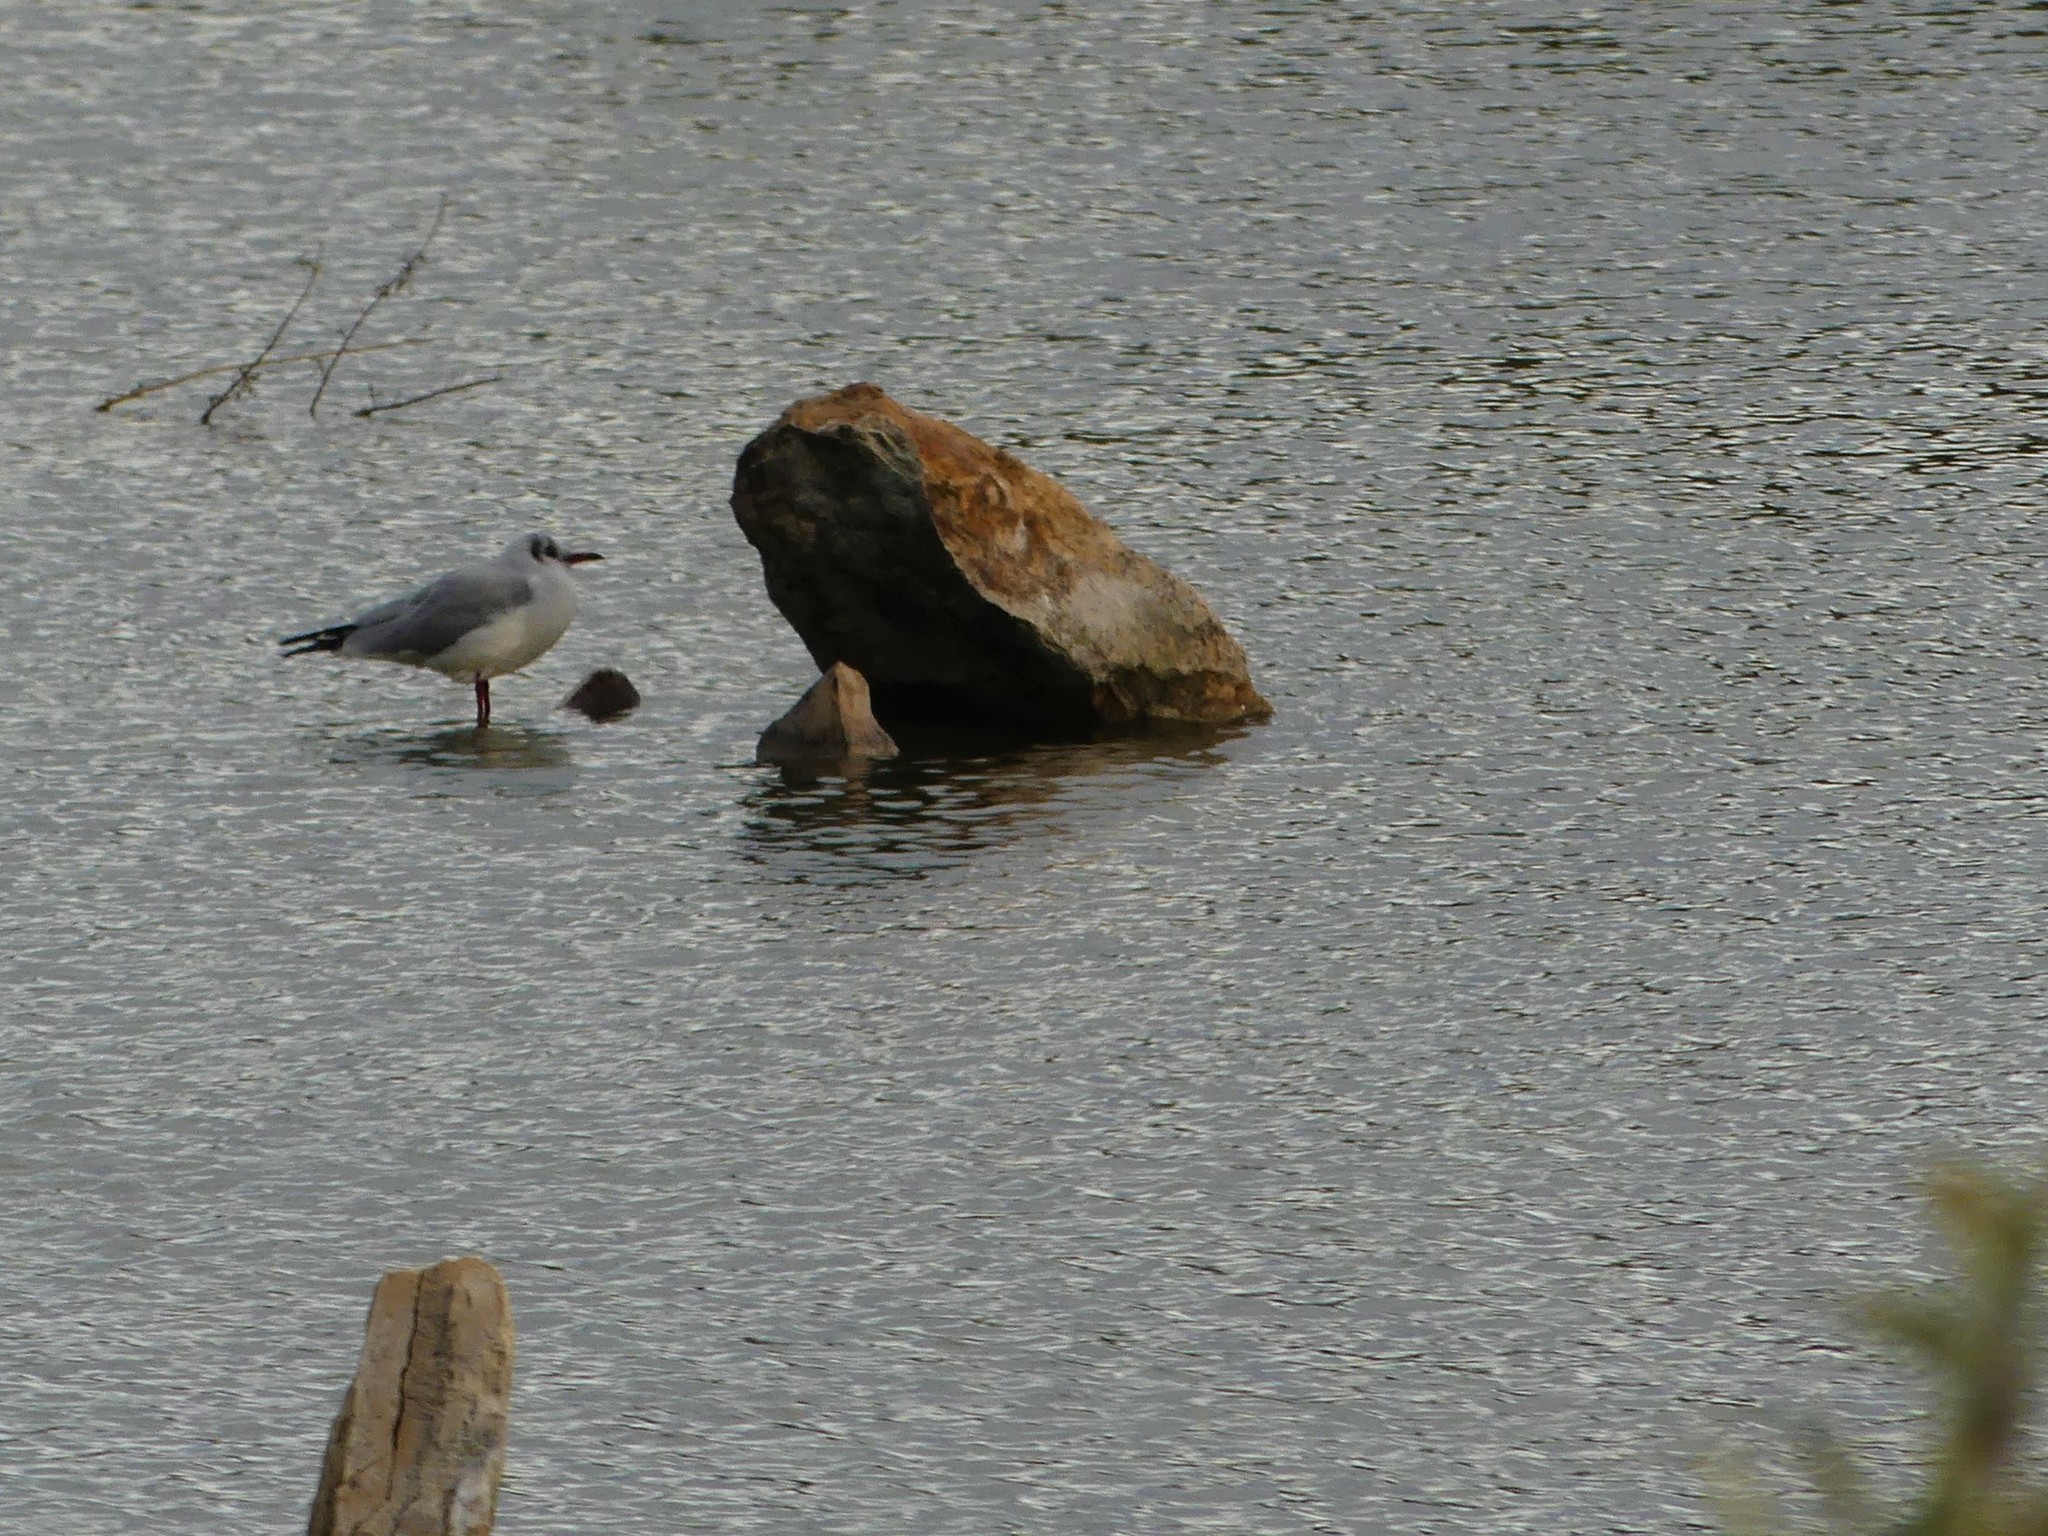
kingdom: Animalia
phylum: Chordata
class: Aves
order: Charadriiformes
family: Laridae
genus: Chroicocephalus
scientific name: Chroicocephalus ridibundus
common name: Black-headed gull
